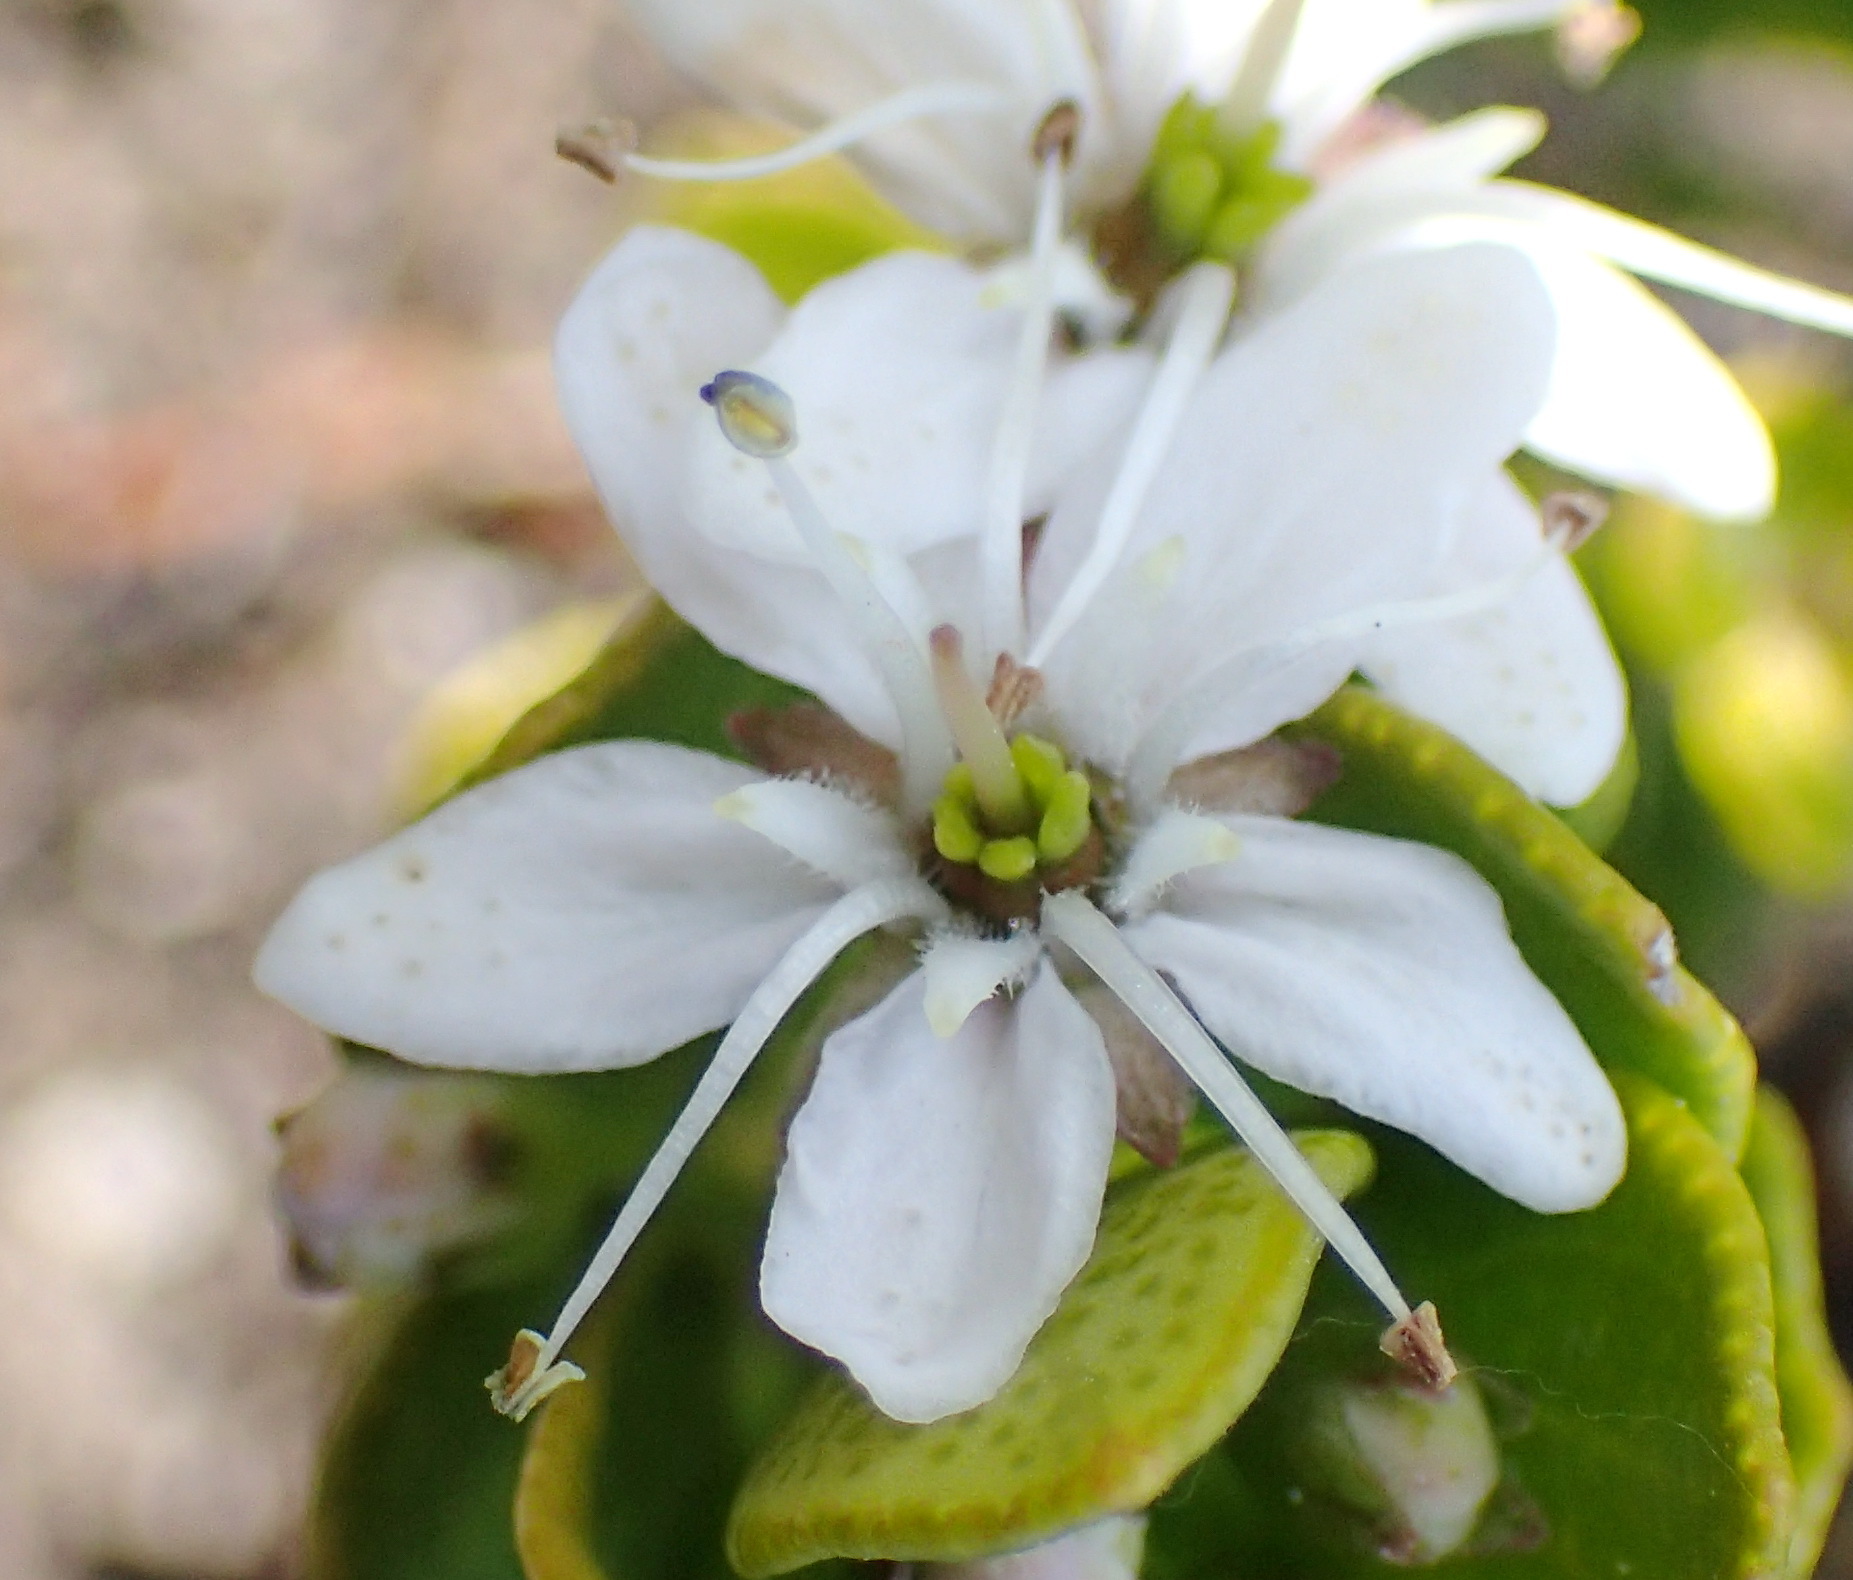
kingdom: Plantae
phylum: Tracheophyta
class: Magnoliopsida
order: Sapindales
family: Rutaceae
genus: Agathosma
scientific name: Agathosma ovata
